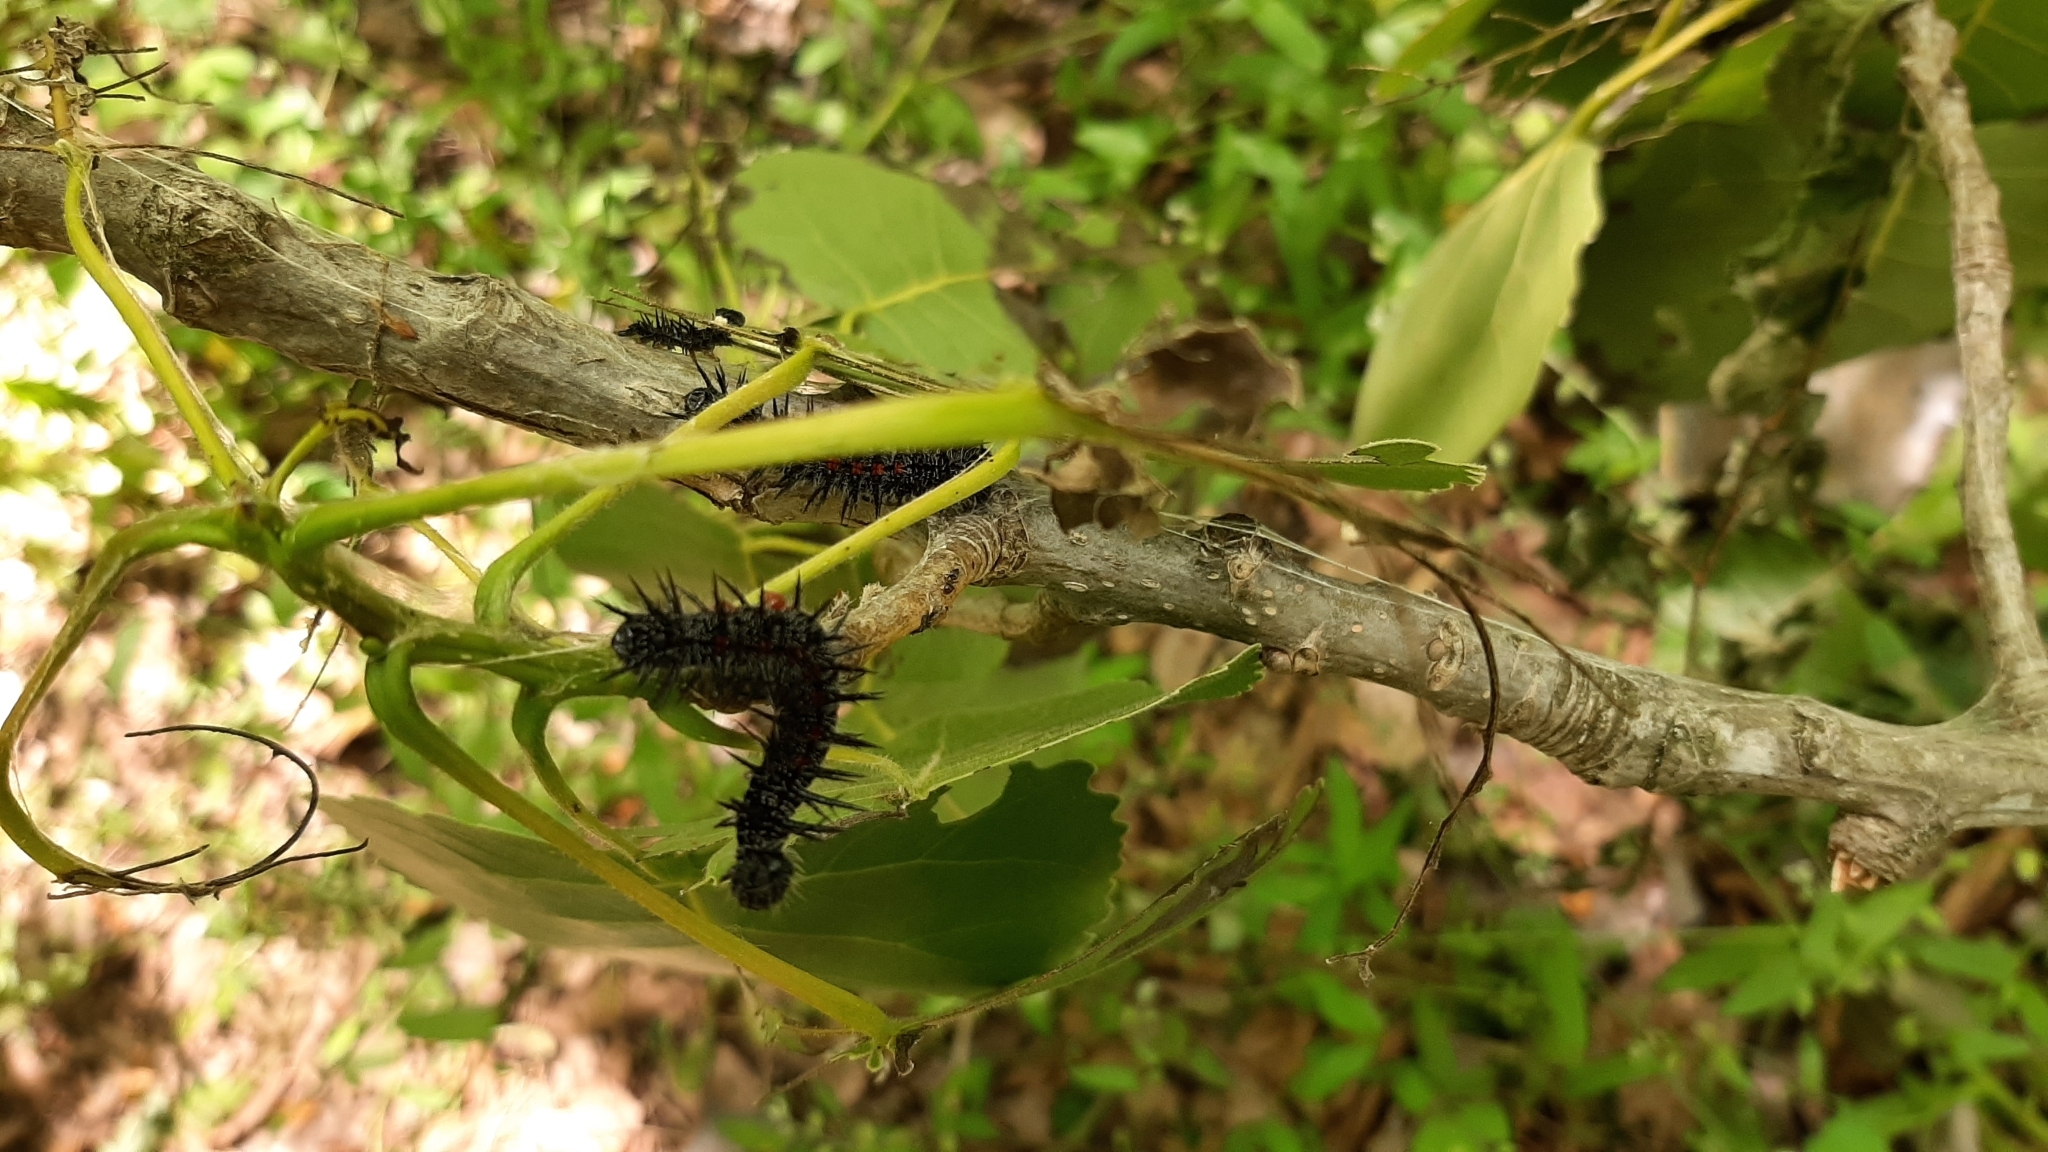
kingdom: Animalia
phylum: Arthropoda
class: Insecta
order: Lepidoptera
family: Nymphalidae
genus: Nymphalis
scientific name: Nymphalis antiopa
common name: Camberwell beauty
